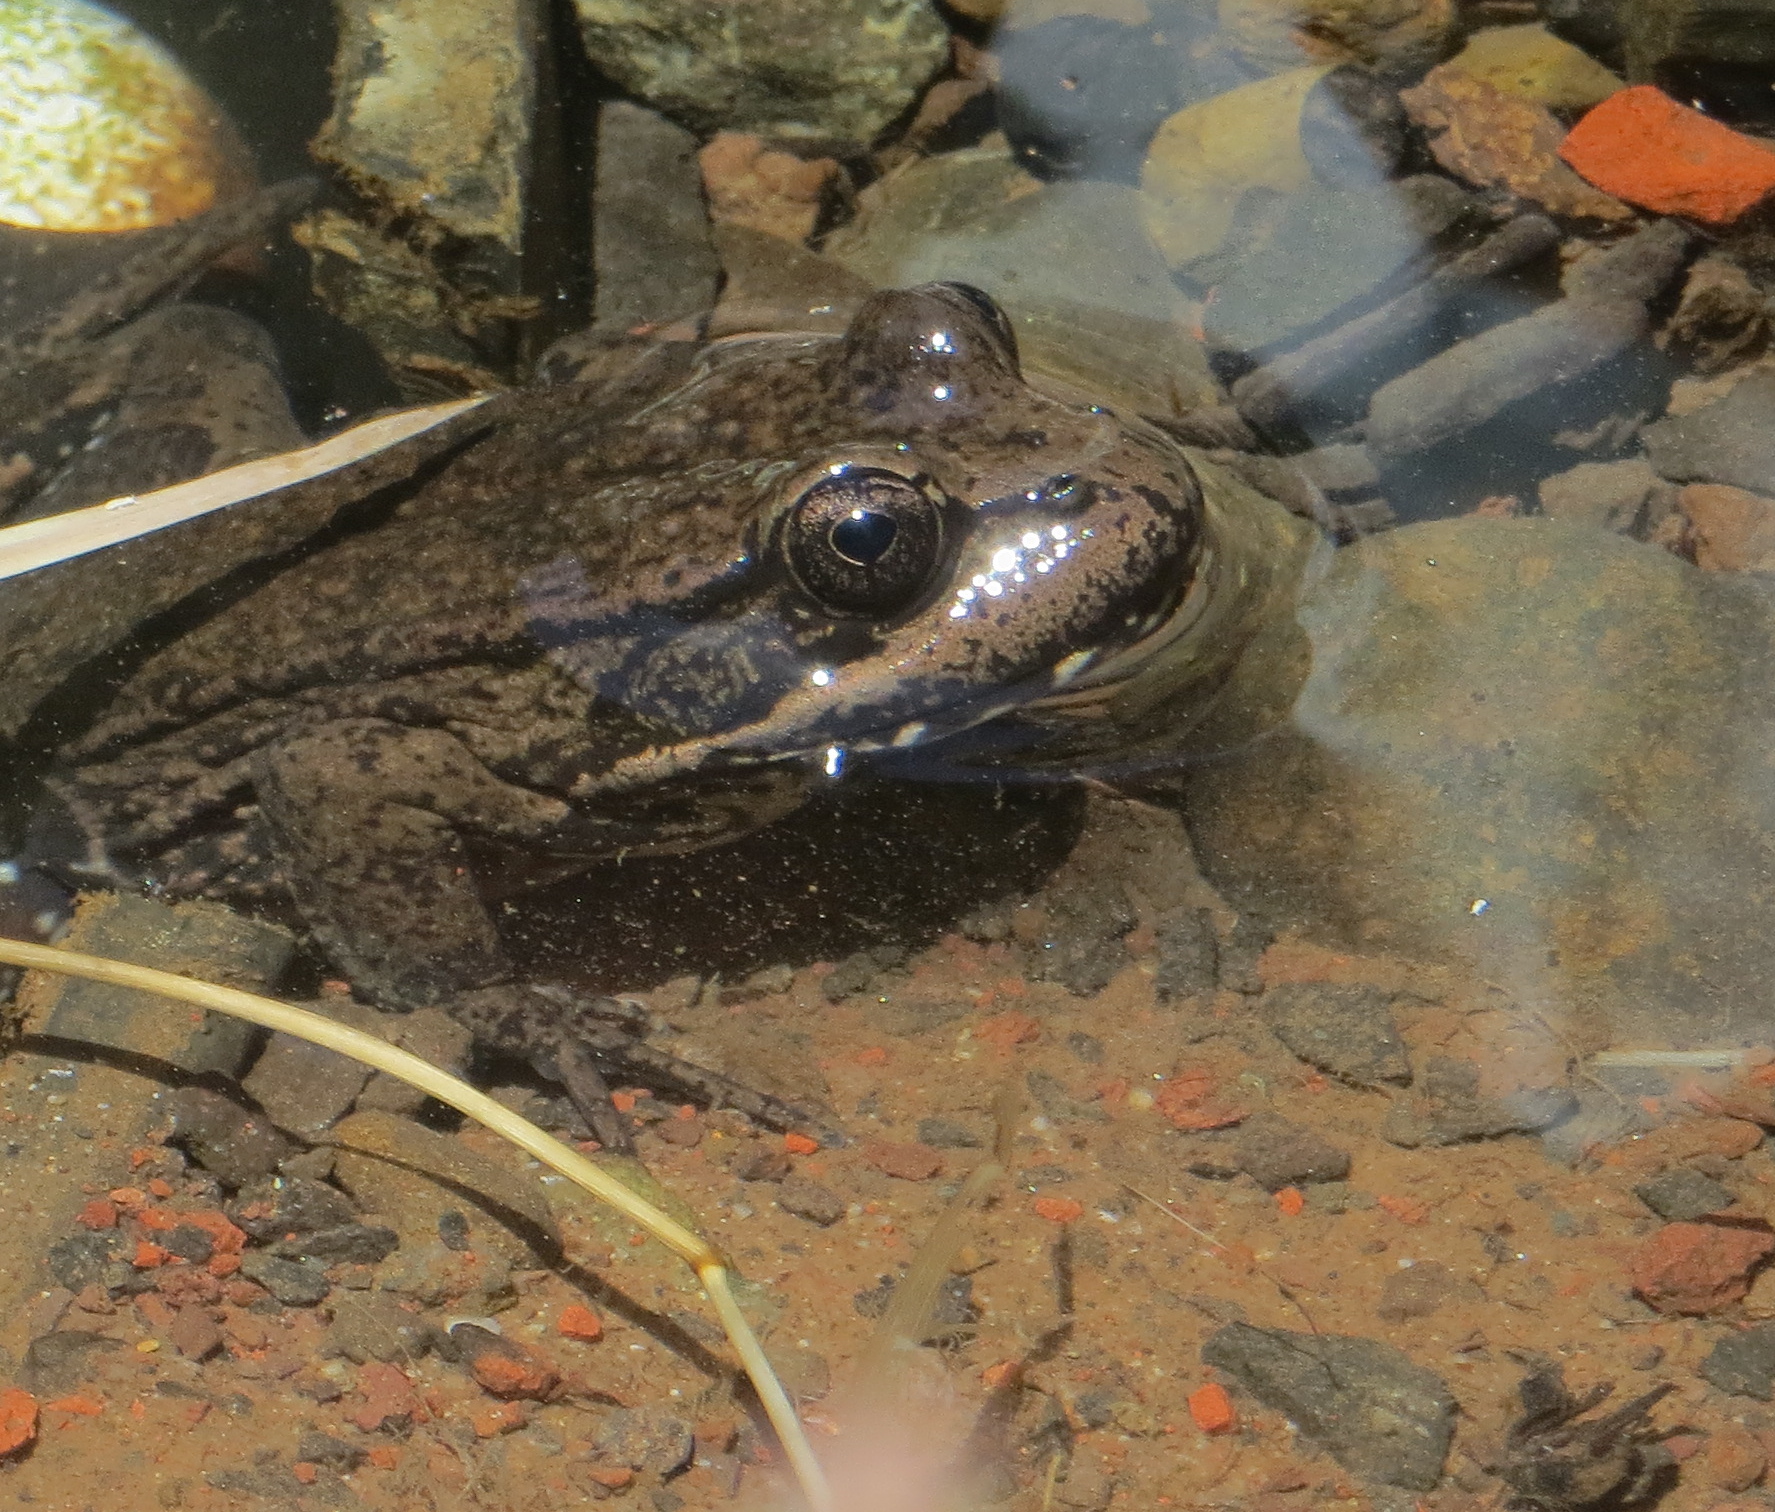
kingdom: Animalia
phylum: Chordata
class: Amphibia
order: Anura
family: Ranidae
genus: Rana
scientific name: Rana draytonii
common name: California red-legged frog
